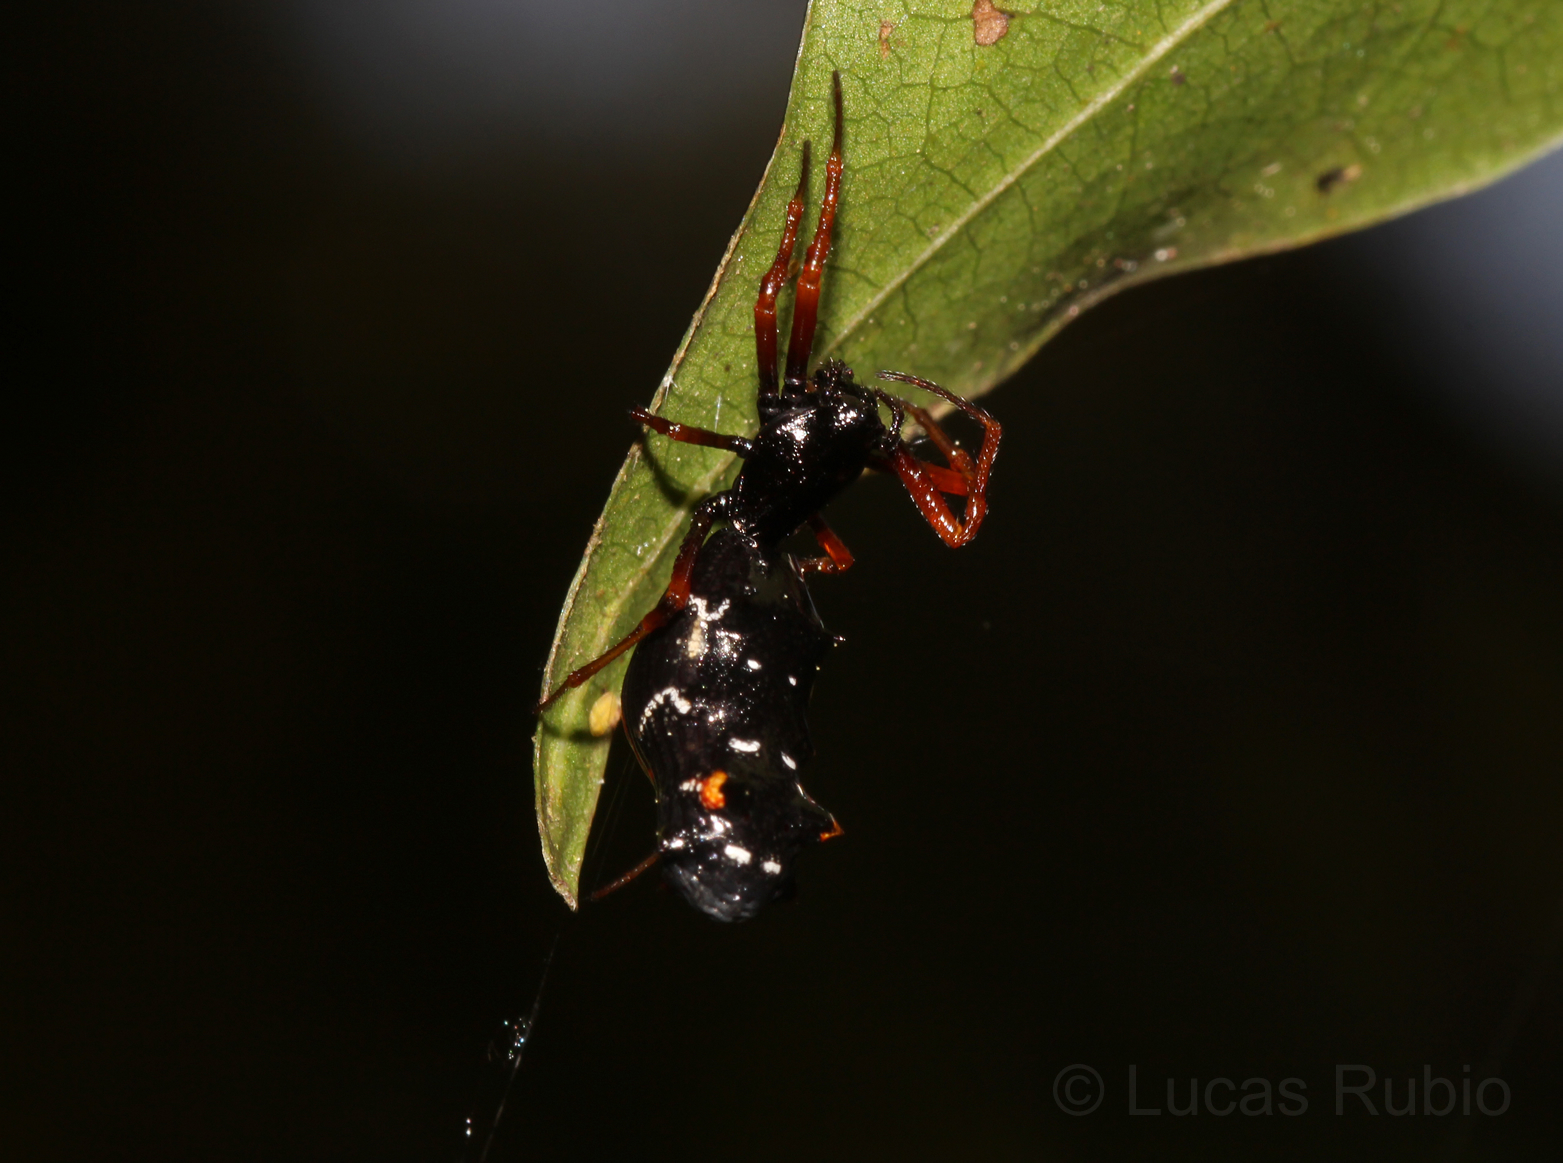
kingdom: Animalia
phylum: Arthropoda
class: Arachnida
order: Araneae
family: Araneidae
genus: Micrathena
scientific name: Micrathena spitzi
